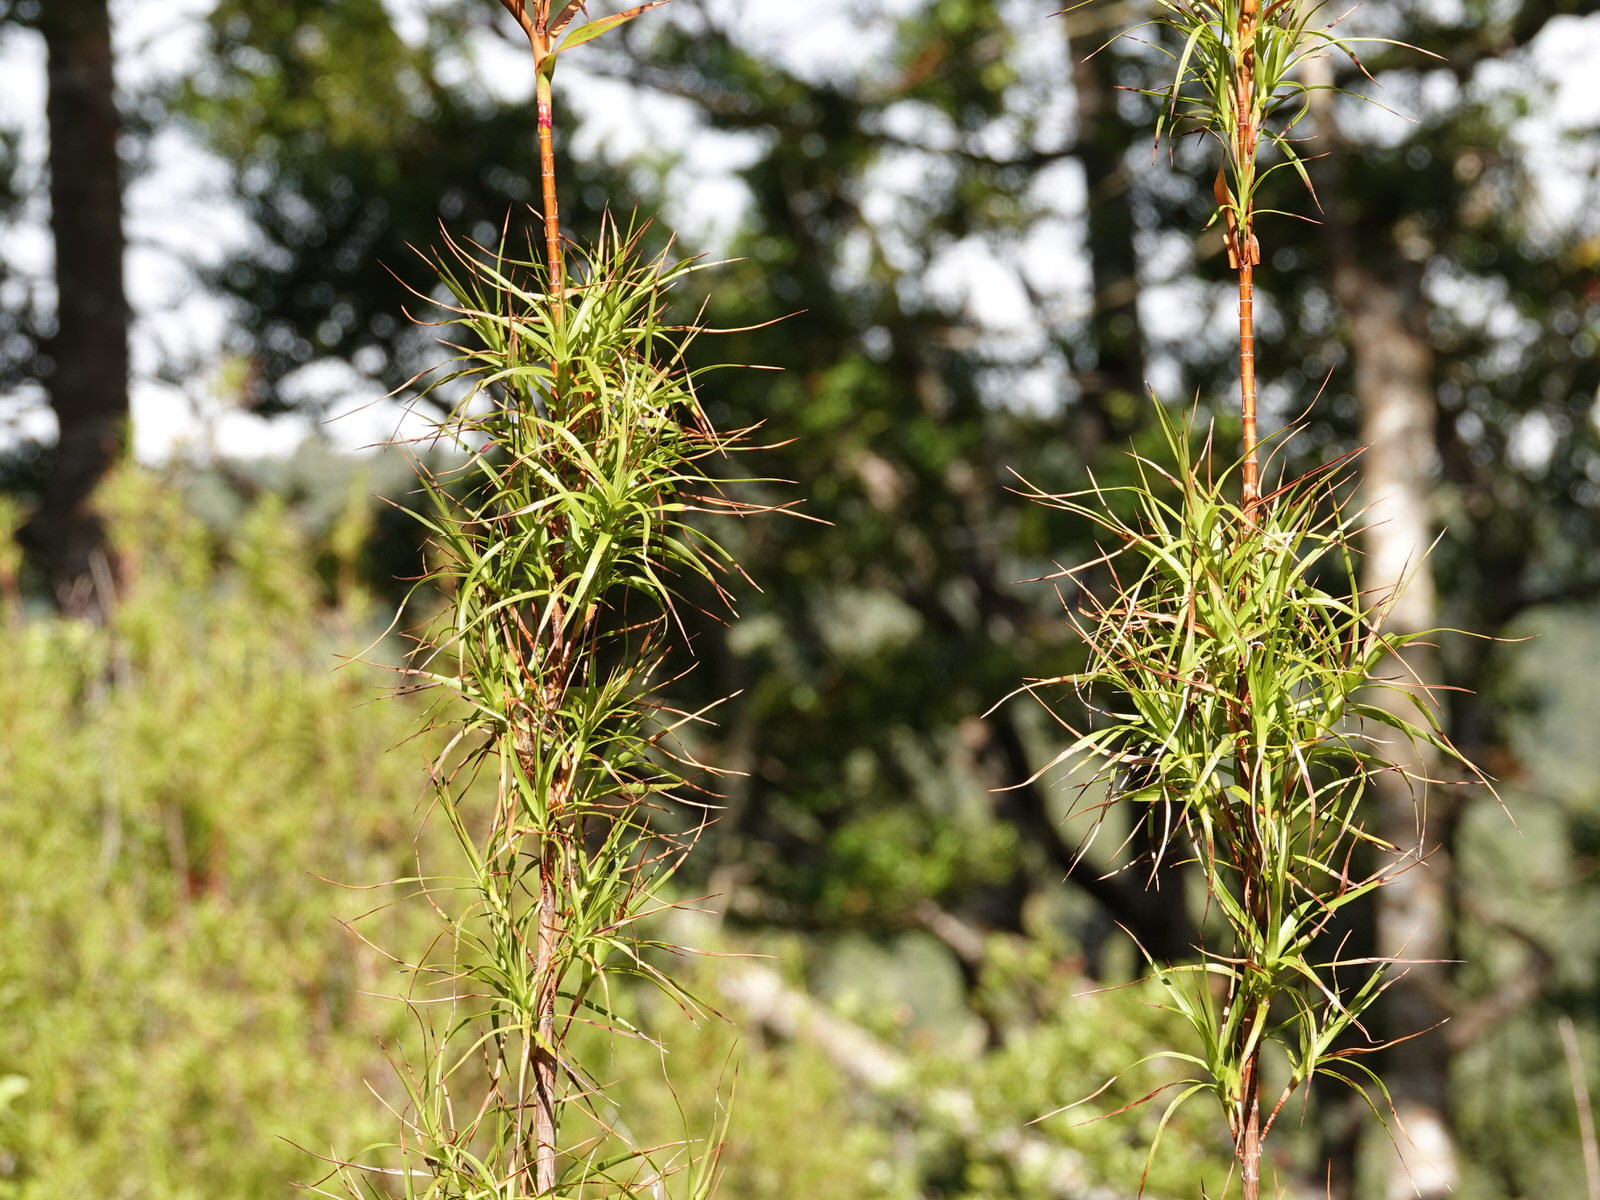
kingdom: Plantae
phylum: Tracheophyta
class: Magnoliopsida
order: Ericales
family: Ericaceae
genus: Dracophyllum
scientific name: Dracophyllum sinclairii
